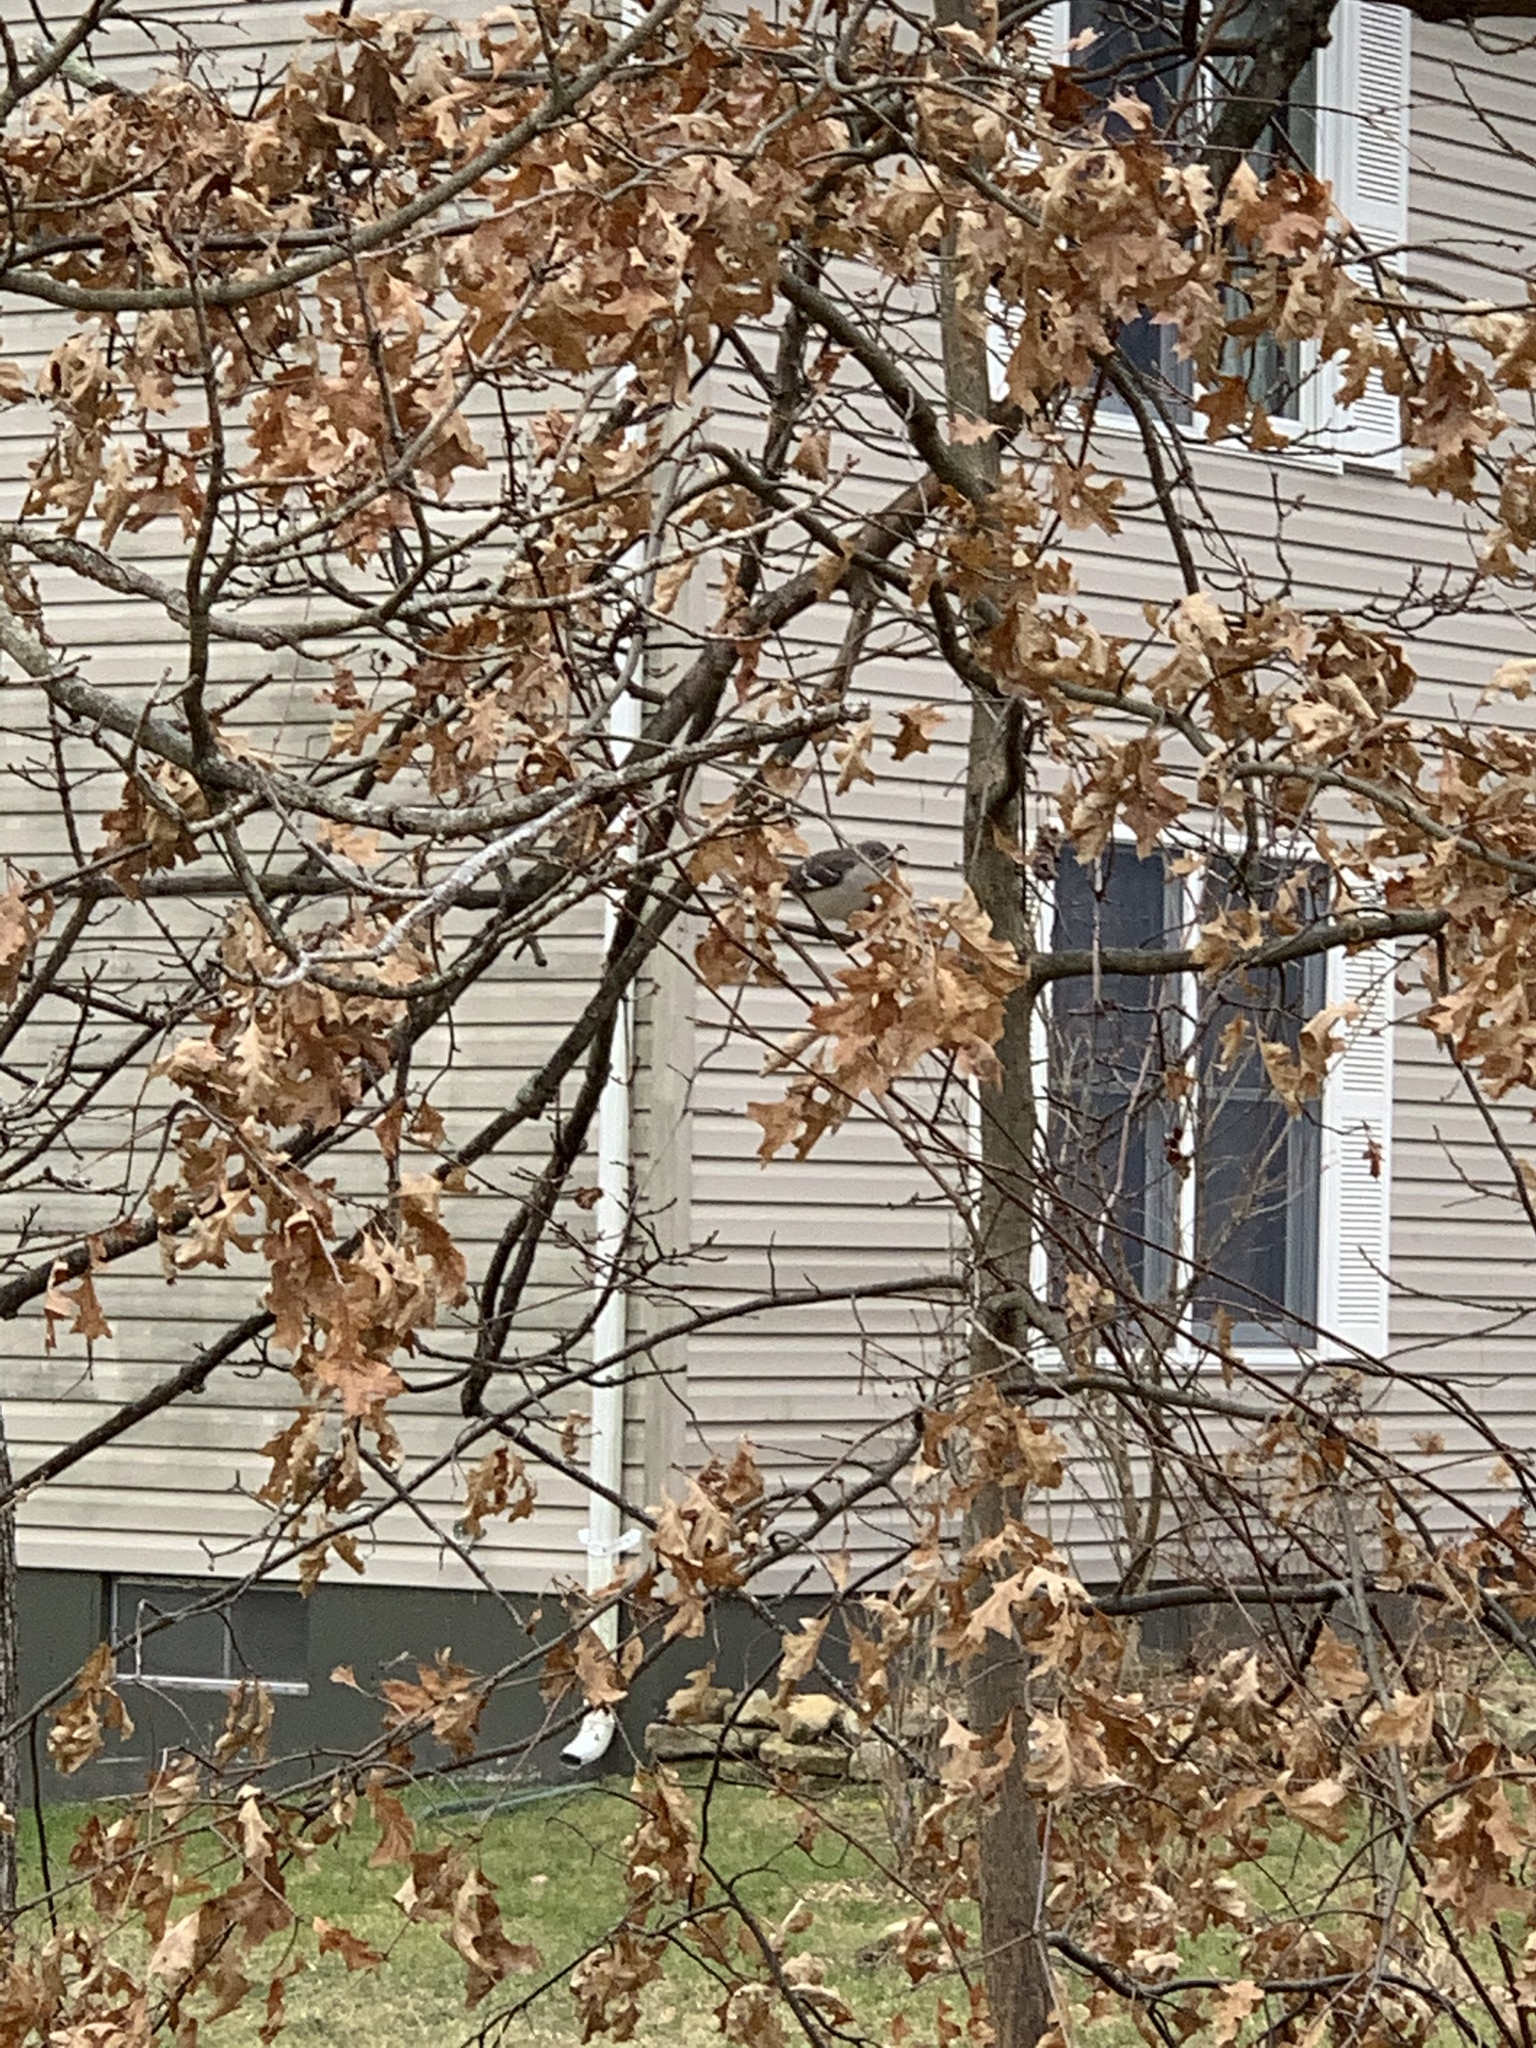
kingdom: Animalia
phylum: Chordata
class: Aves
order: Passeriformes
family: Mimidae
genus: Mimus
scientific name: Mimus polyglottos
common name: Northern mockingbird
